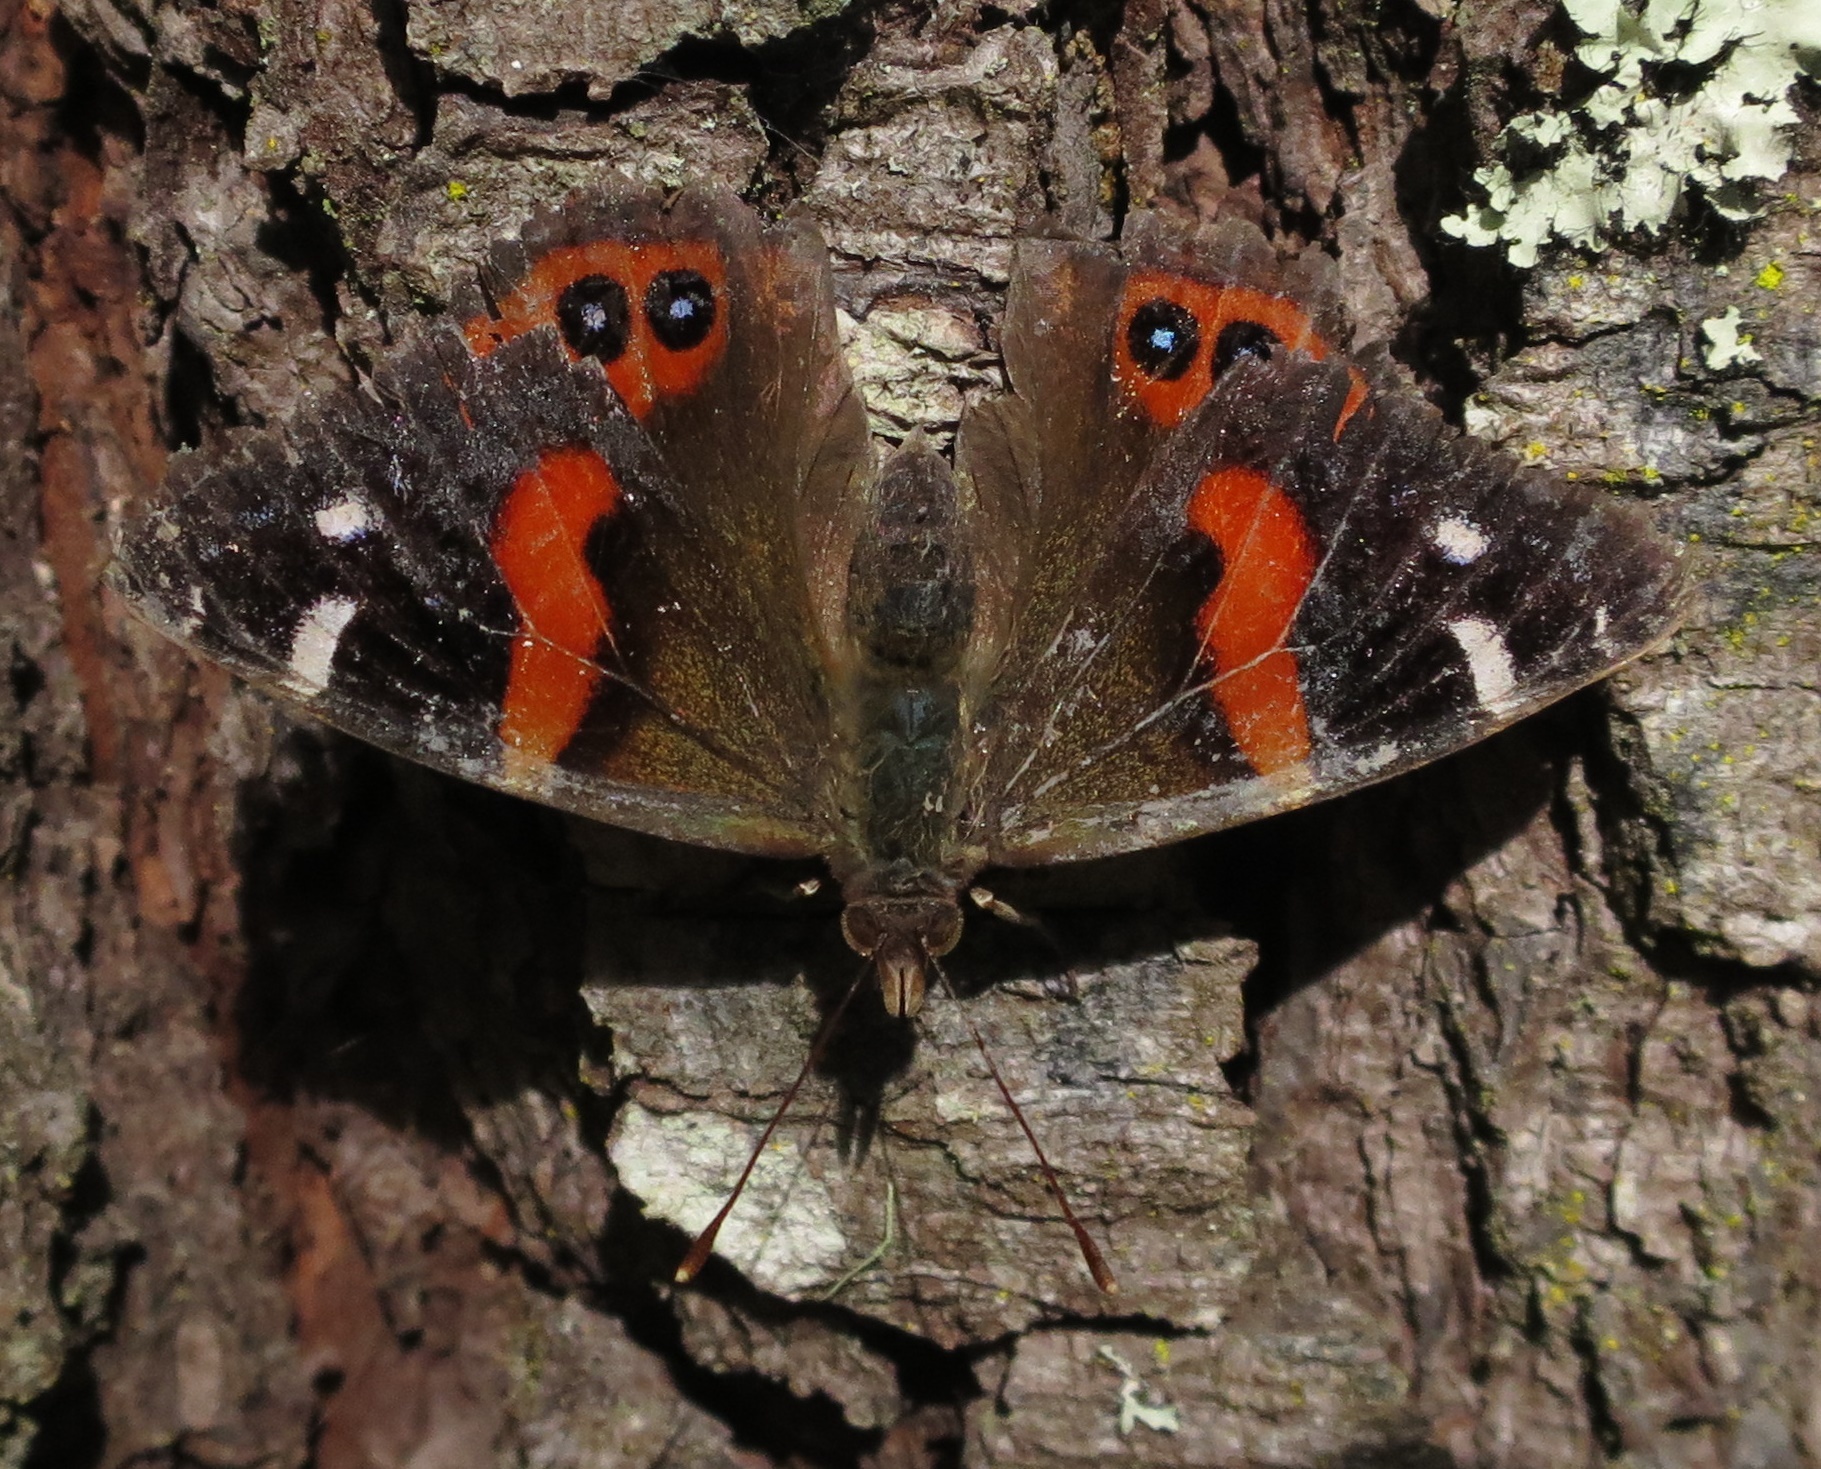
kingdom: Animalia
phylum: Arthropoda
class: Insecta
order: Lepidoptera
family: Nymphalidae
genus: Vanessa
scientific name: Vanessa gonerilla
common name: New zealand red admiral
